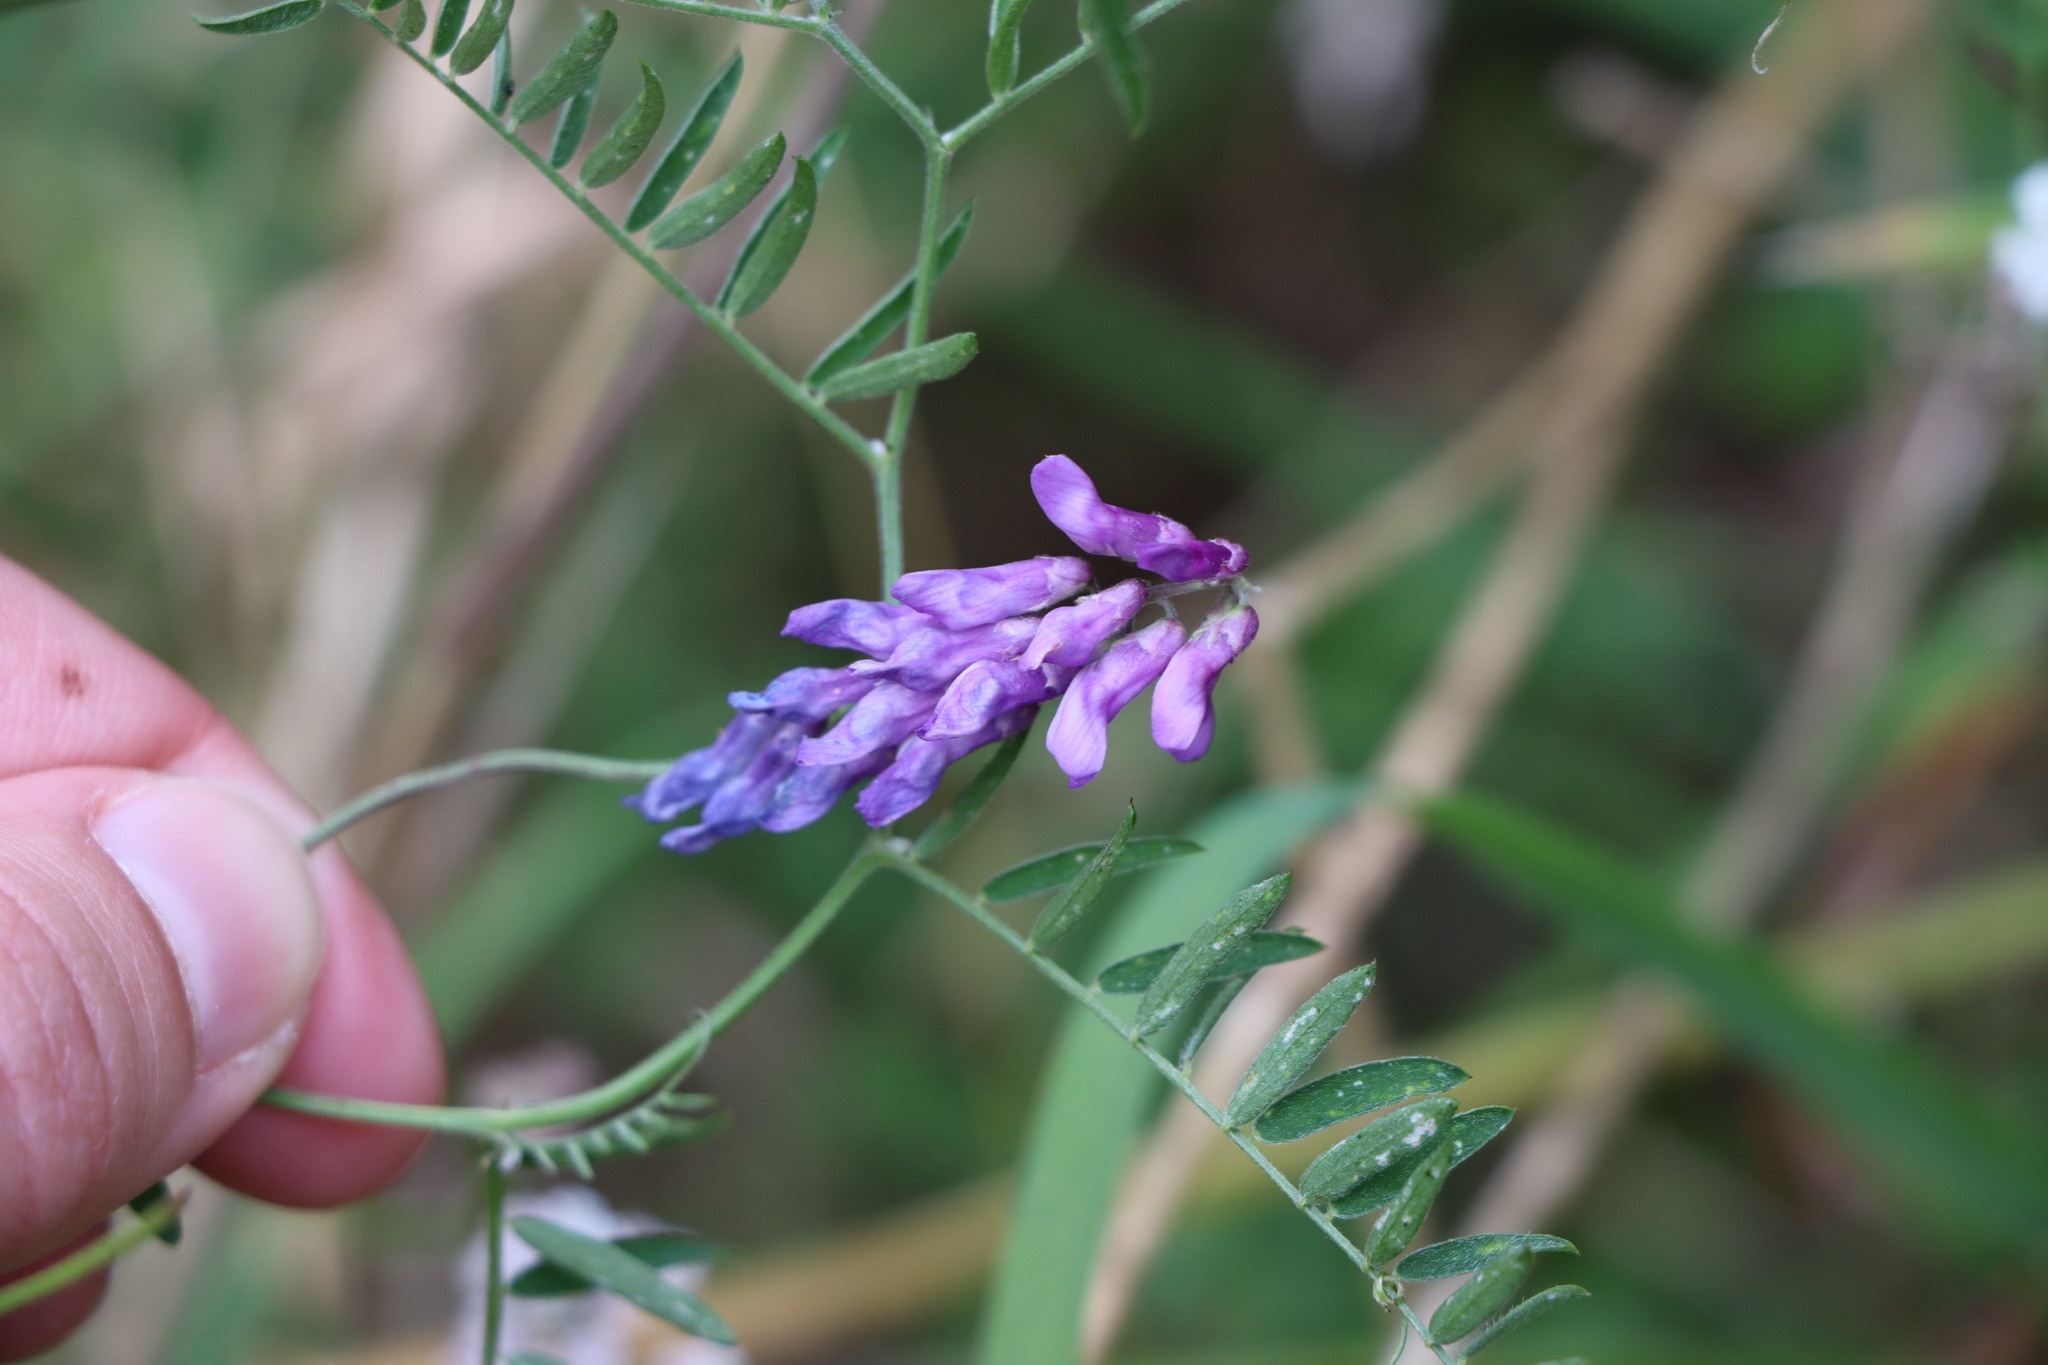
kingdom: Plantae
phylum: Tracheophyta
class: Magnoliopsida
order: Fabales
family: Fabaceae
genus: Vicia
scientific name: Vicia cracca
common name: Bird vetch
